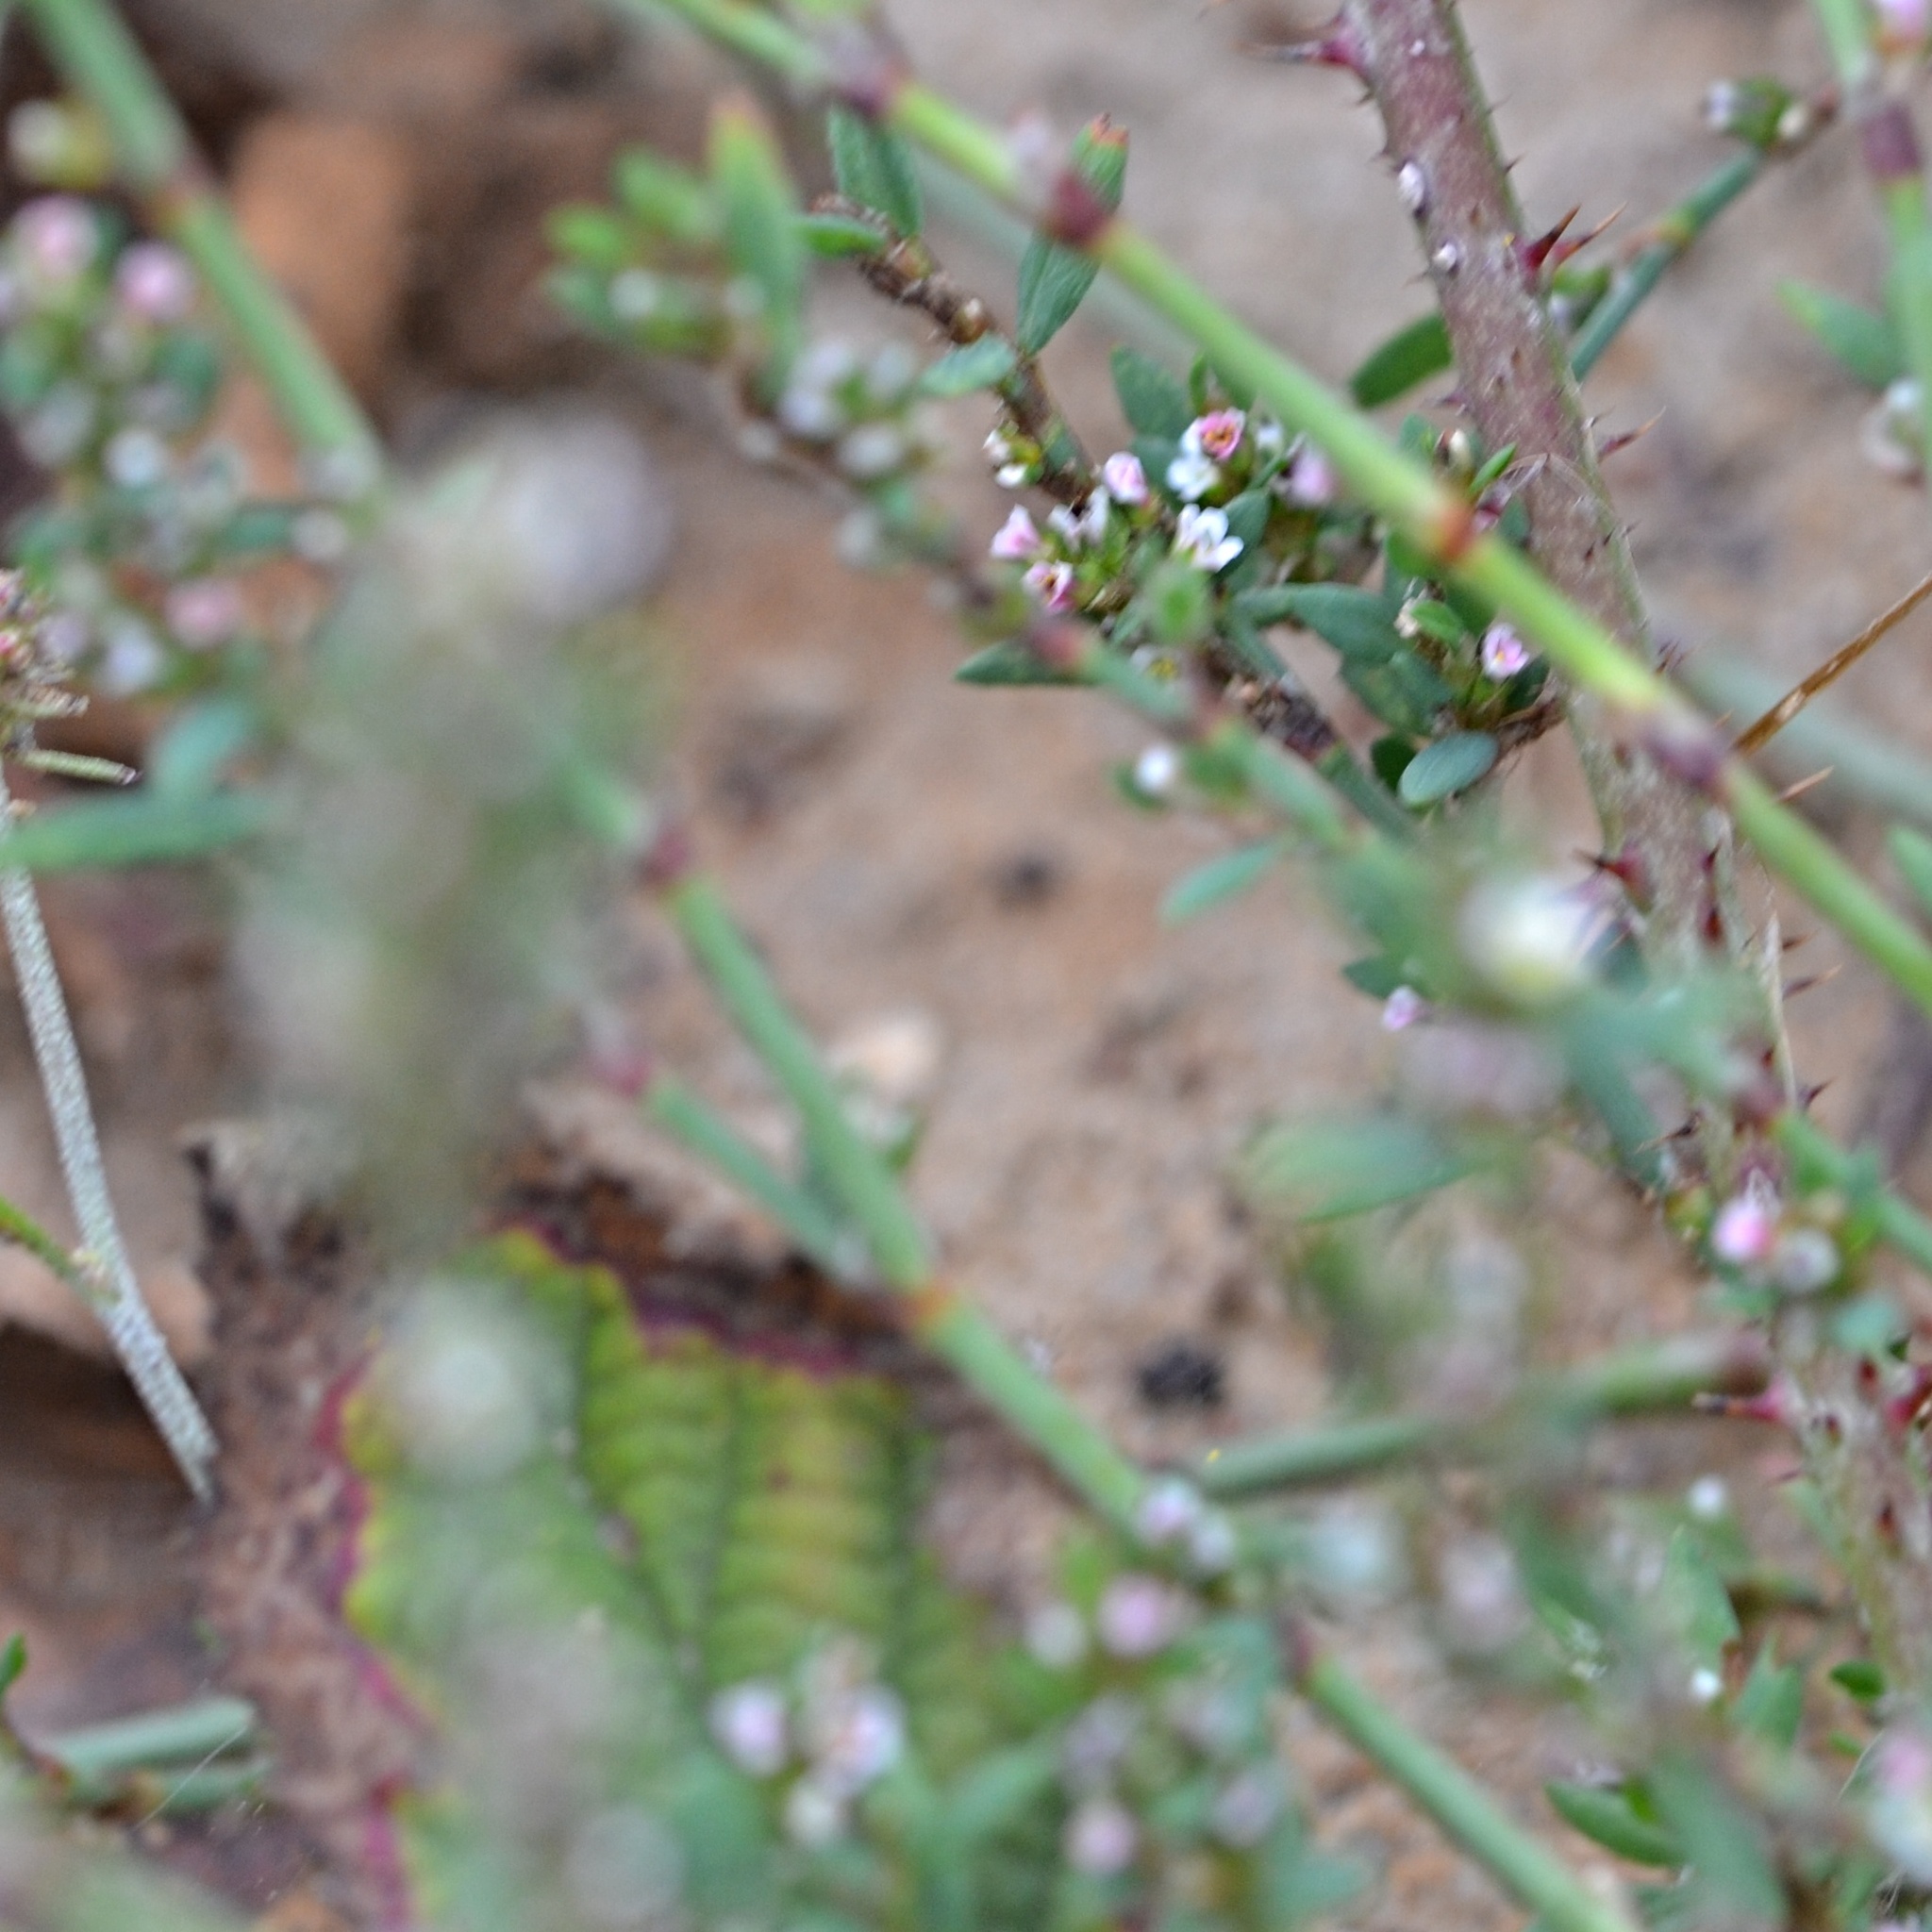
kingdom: Plantae
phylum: Tracheophyta
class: Magnoliopsida
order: Caryophyllales
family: Polygonaceae
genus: Polygonum
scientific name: Polygonum arenastrum
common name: Equal-leaved knotgrass
